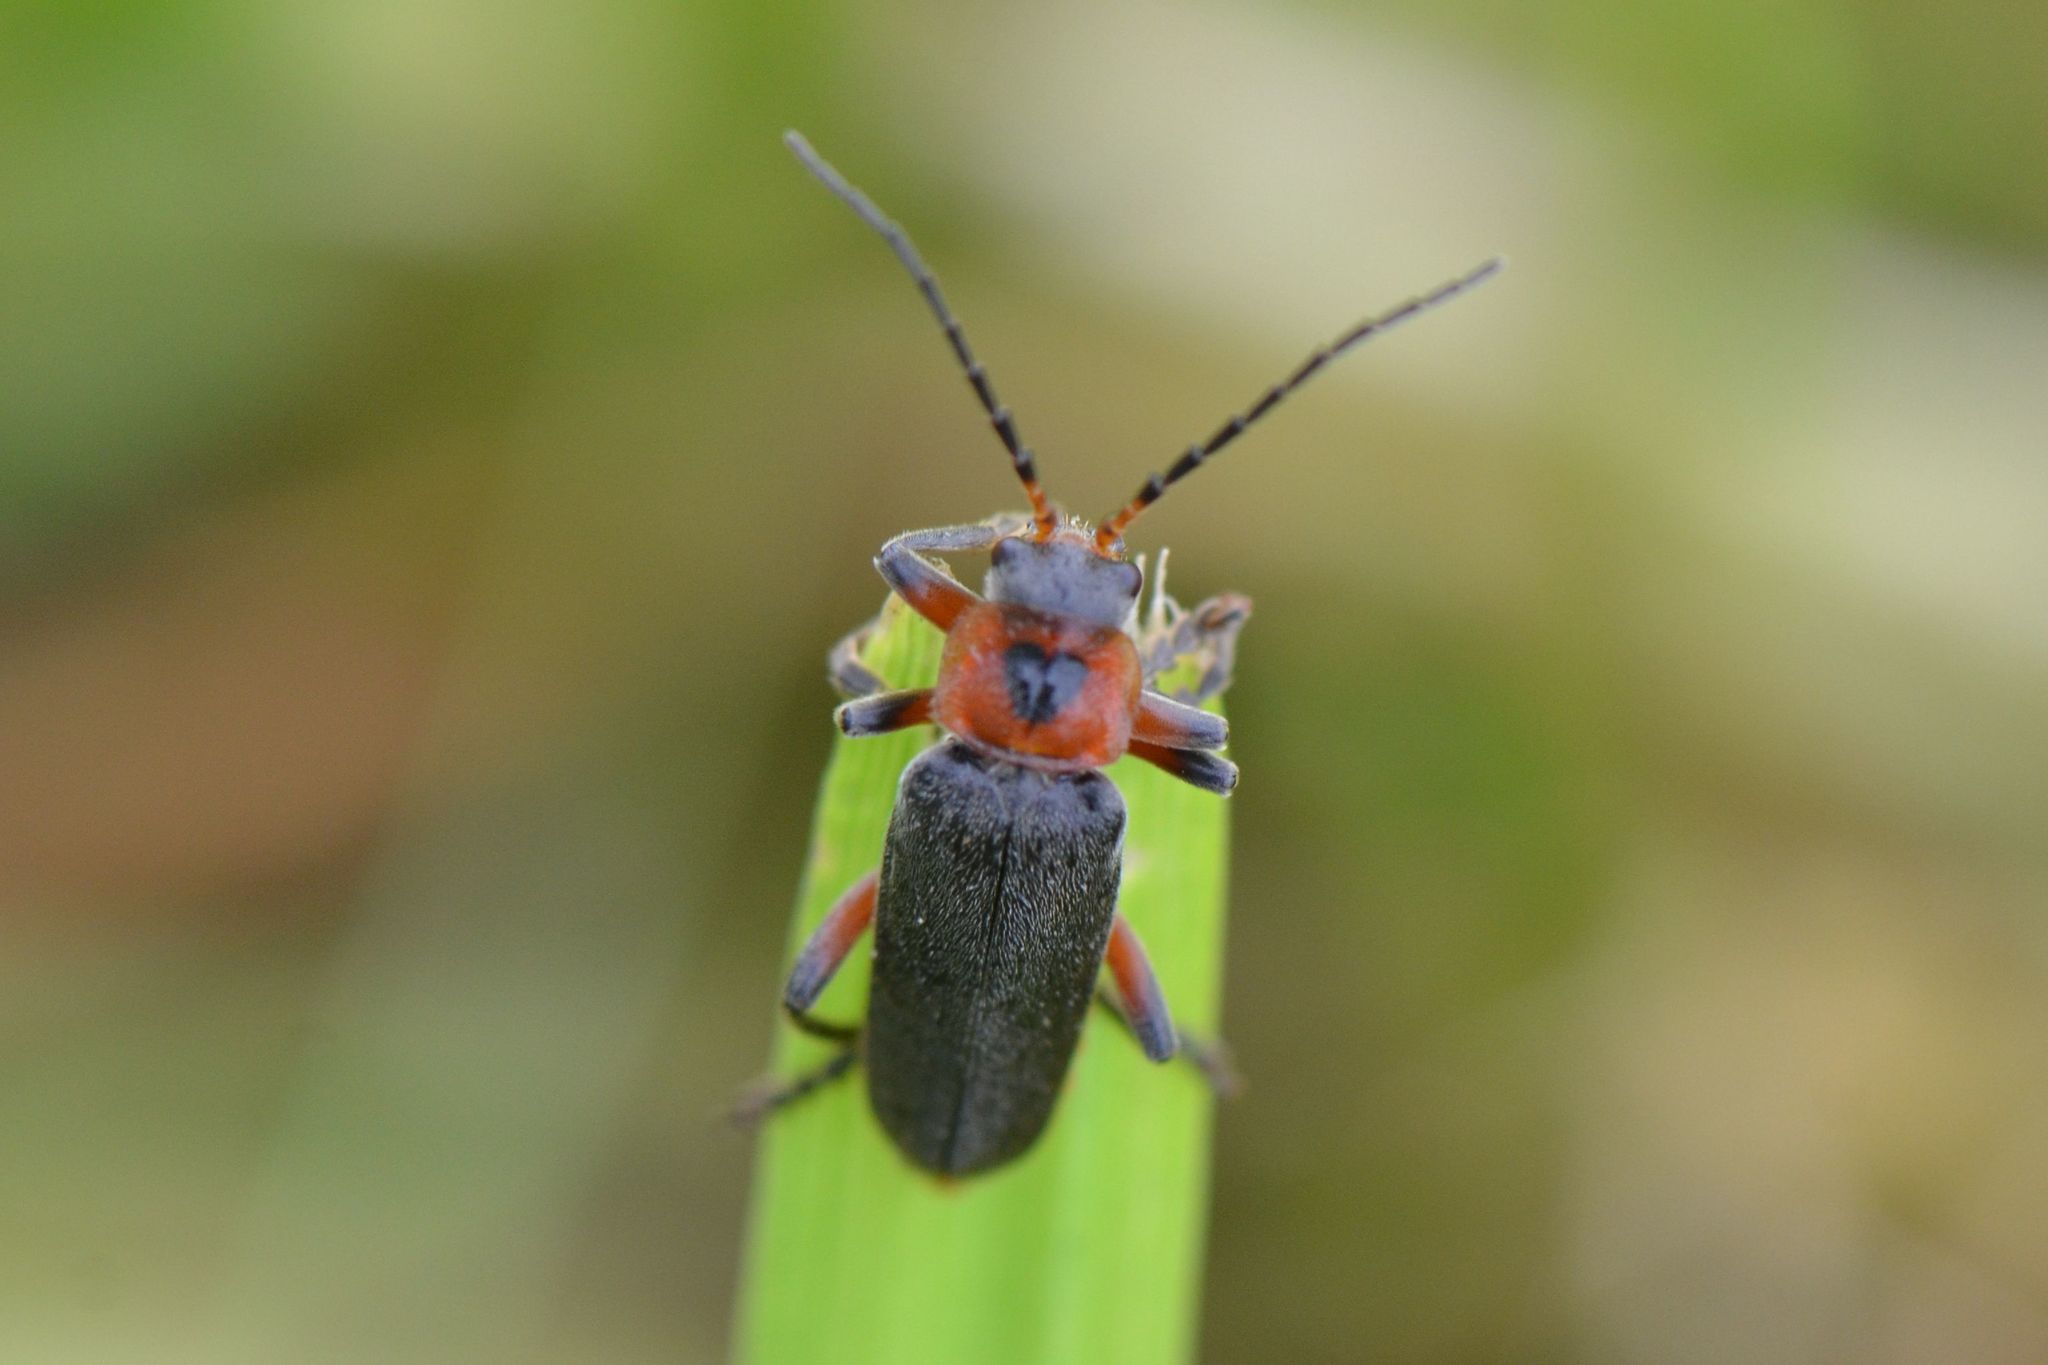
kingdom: Animalia
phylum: Arthropoda
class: Insecta
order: Coleoptera
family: Cantharidae
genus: Cantharis
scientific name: Cantharis rustica
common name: Soldier beetle
